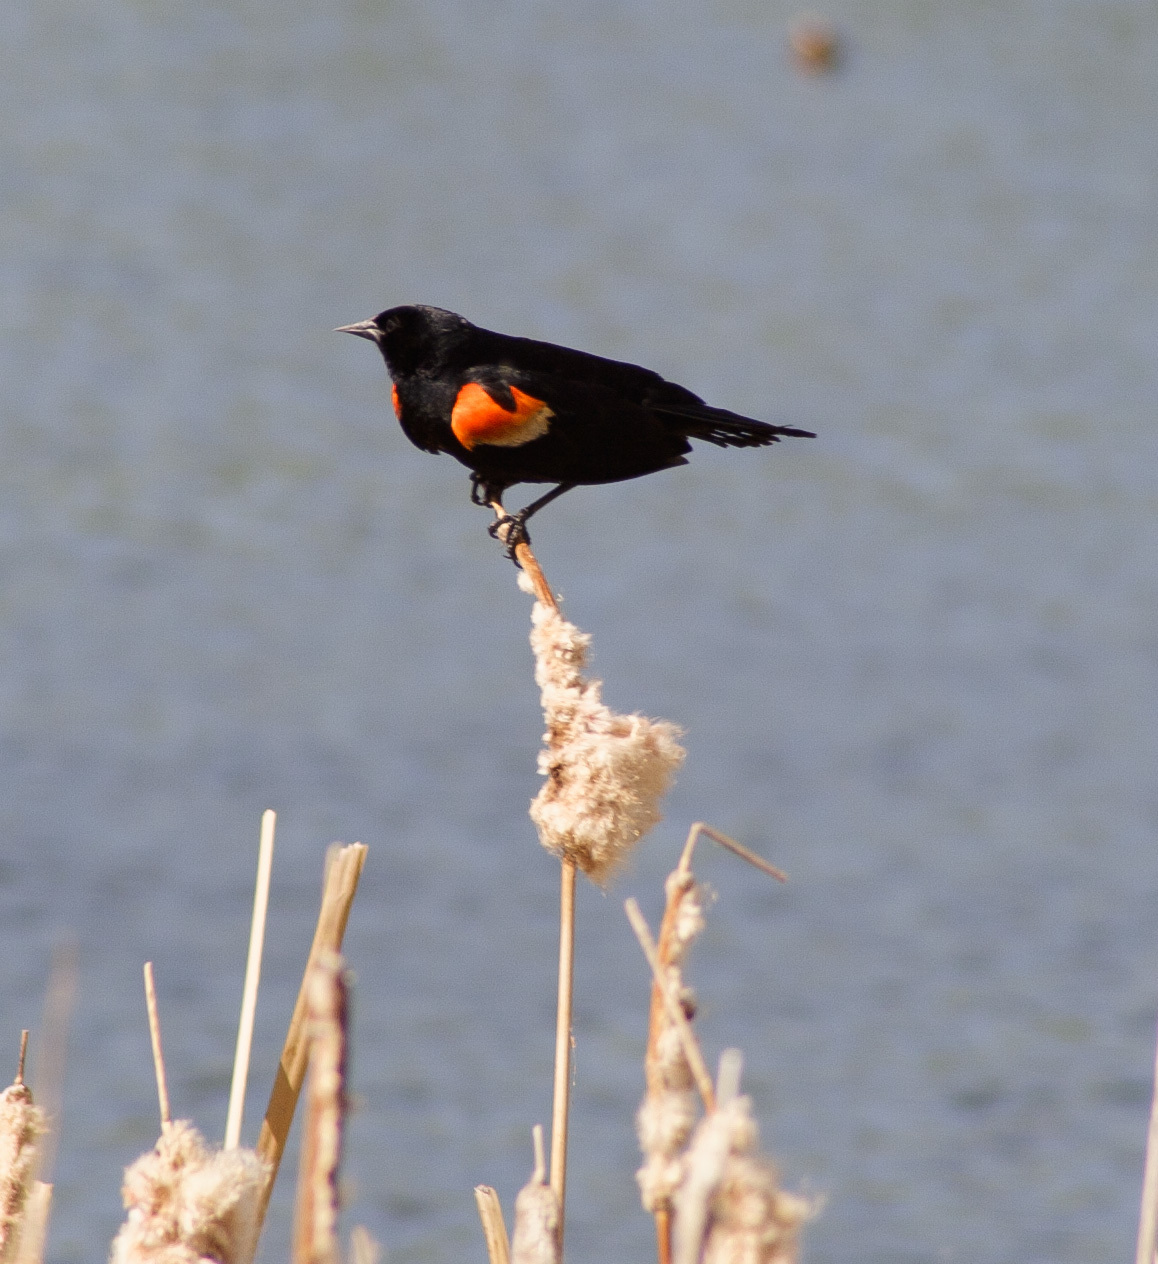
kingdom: Animalia
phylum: Chordata
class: Aves
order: Passeriformes
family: Icteridae
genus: Agelaius
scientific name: Agelaius phoeniceus
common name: Red-winged blackbird
